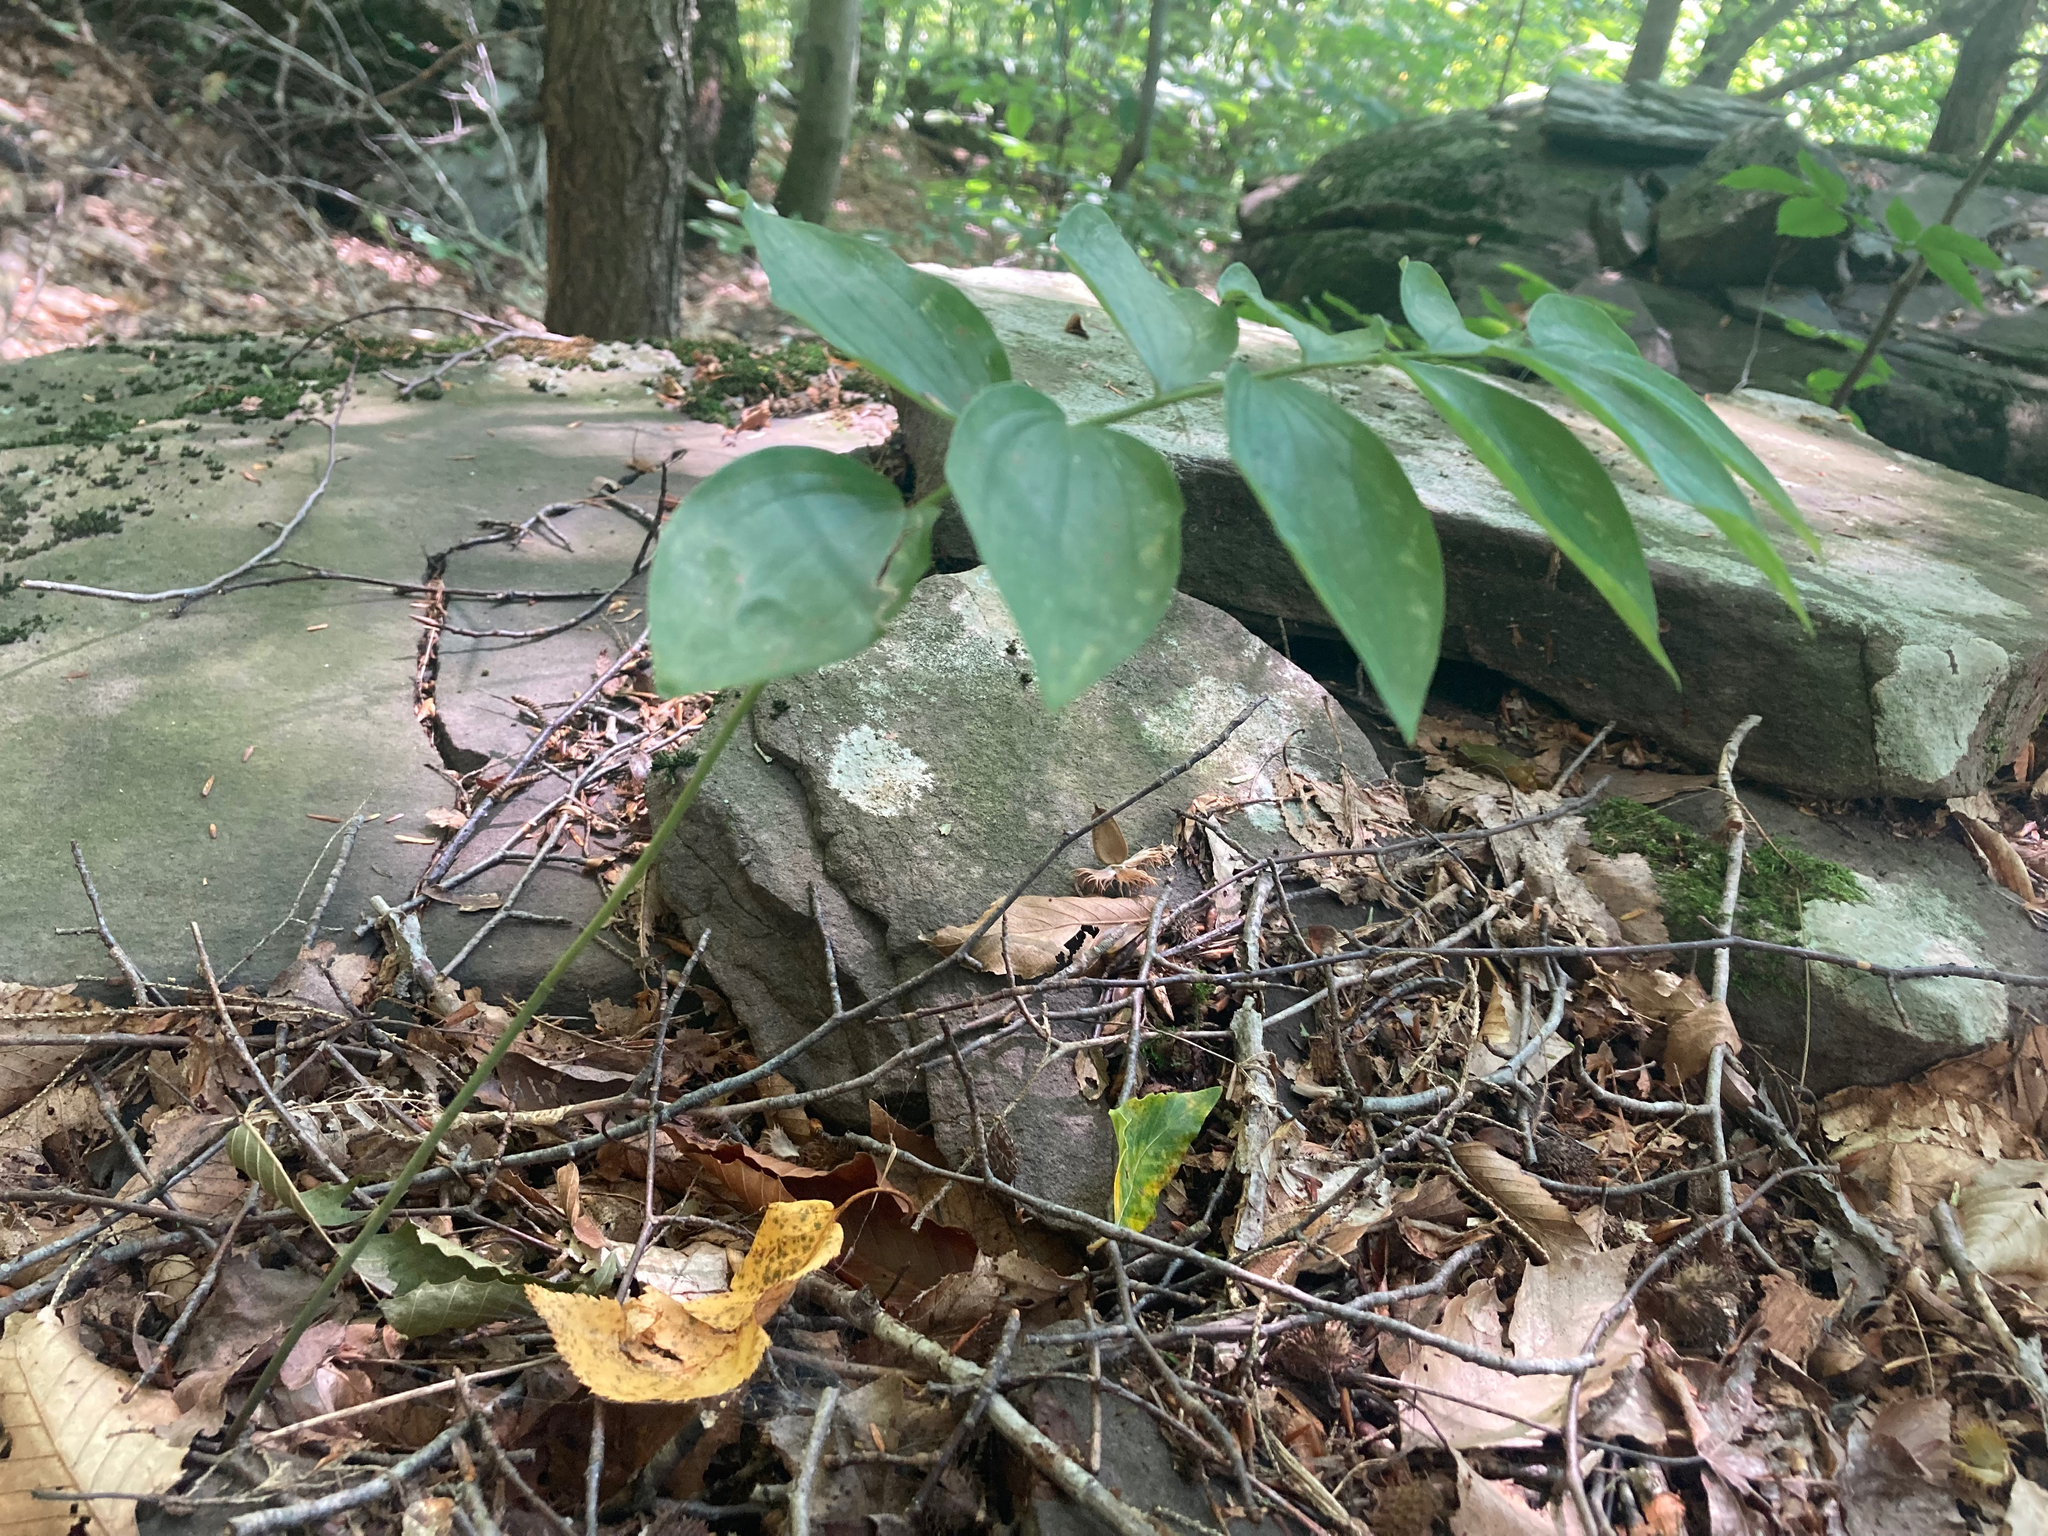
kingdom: Plantae
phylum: Tracheophyta
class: Liliopsida
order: Asparagales
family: Asparagaceae
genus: Polygonatum
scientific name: Polygonatum pubescens
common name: Downy solomon's seal
